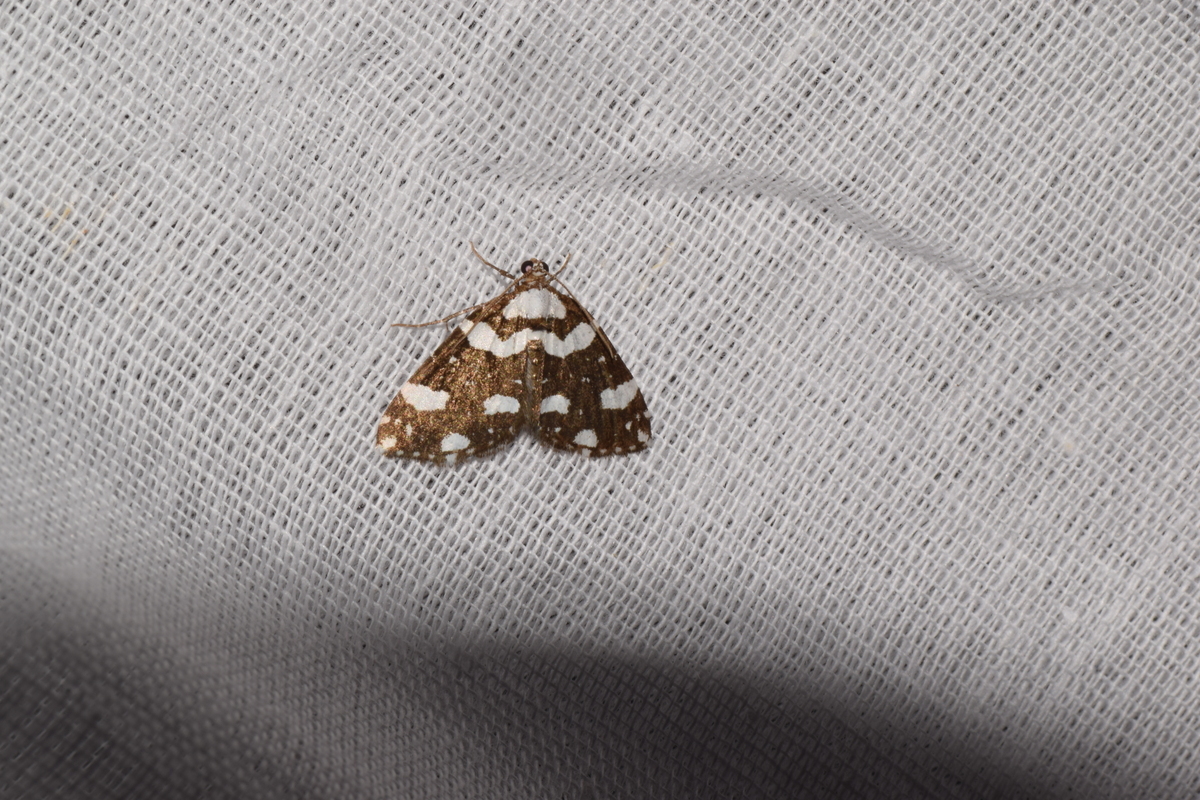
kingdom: Animalia
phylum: Arthropoda
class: Insecta
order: Lepidoptera
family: Geometridae
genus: Perizoma
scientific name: Perizoma maculata
